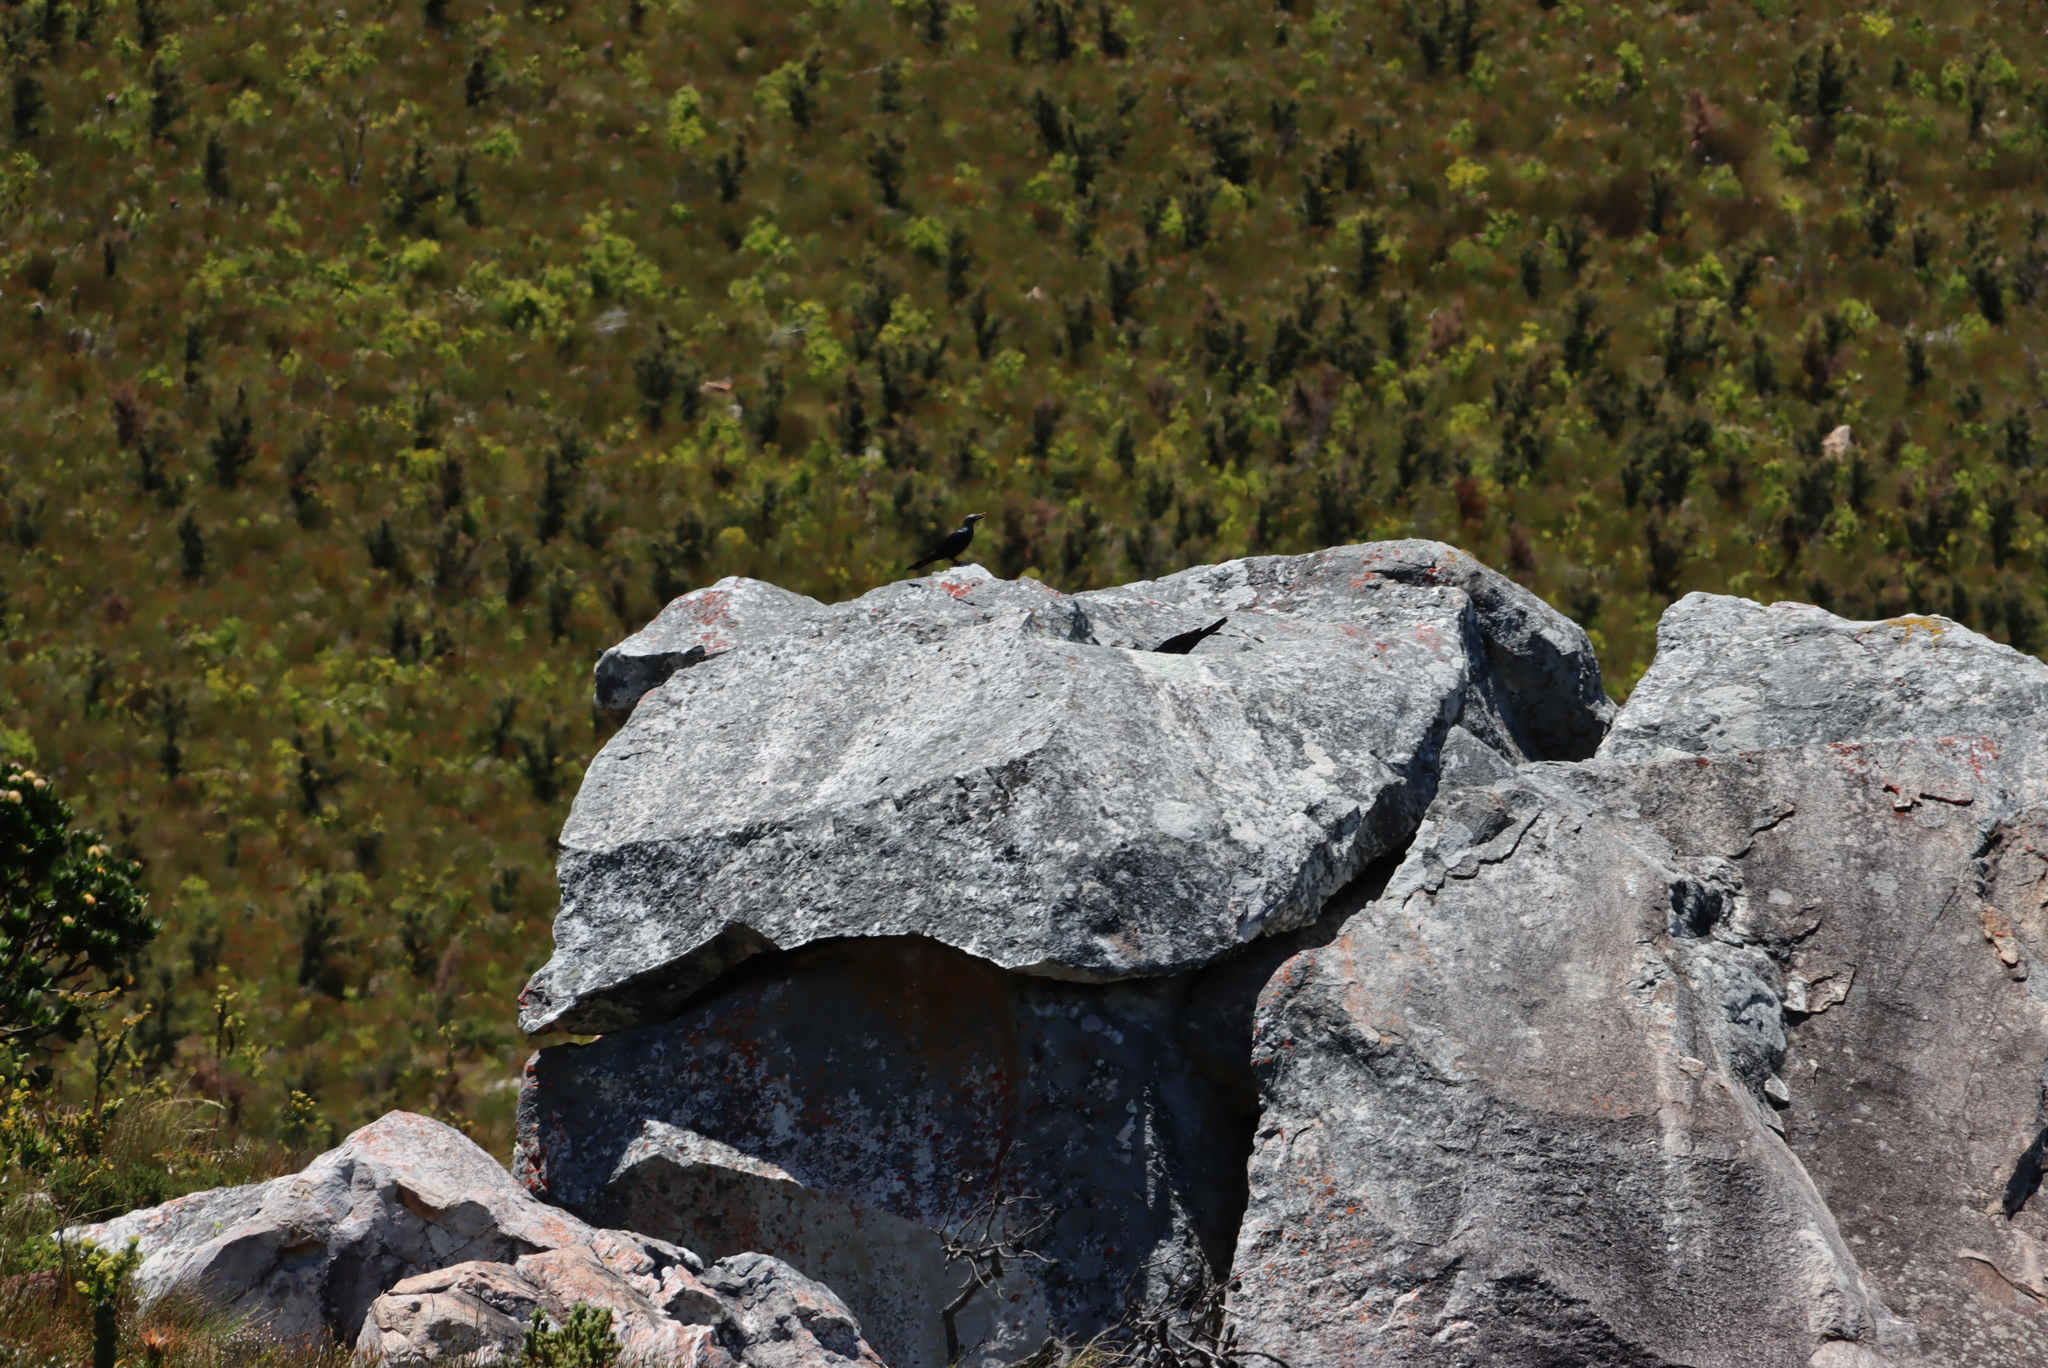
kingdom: Animalia
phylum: Chordata
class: Aves
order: Passeriformes
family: Sturnidae
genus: Onychognathus
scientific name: Onychognathus morio
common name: Red-winged starling
